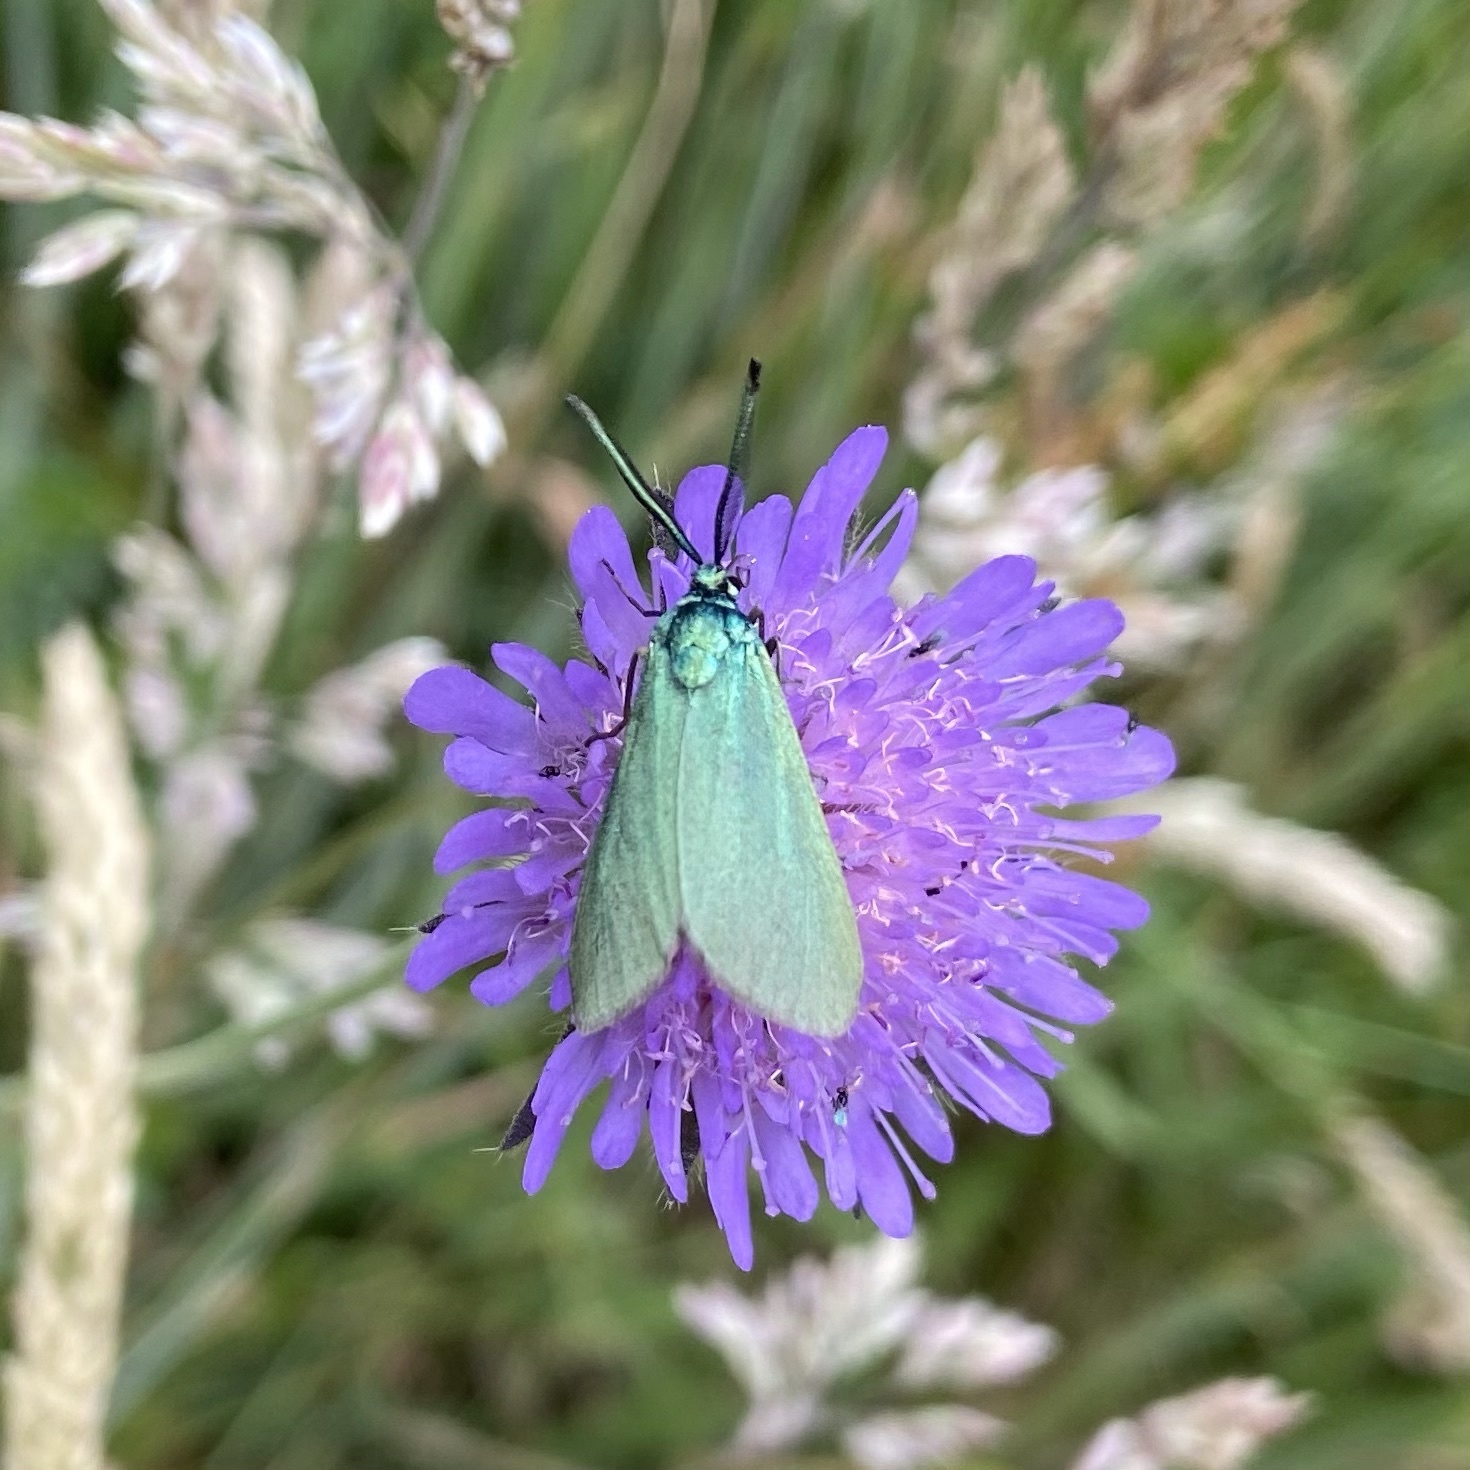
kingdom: Animalia
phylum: Arthropoda
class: Insecta
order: Lepidoptera
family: Zygaenidae
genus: Adscita
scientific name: Adscita statices
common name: Forester
